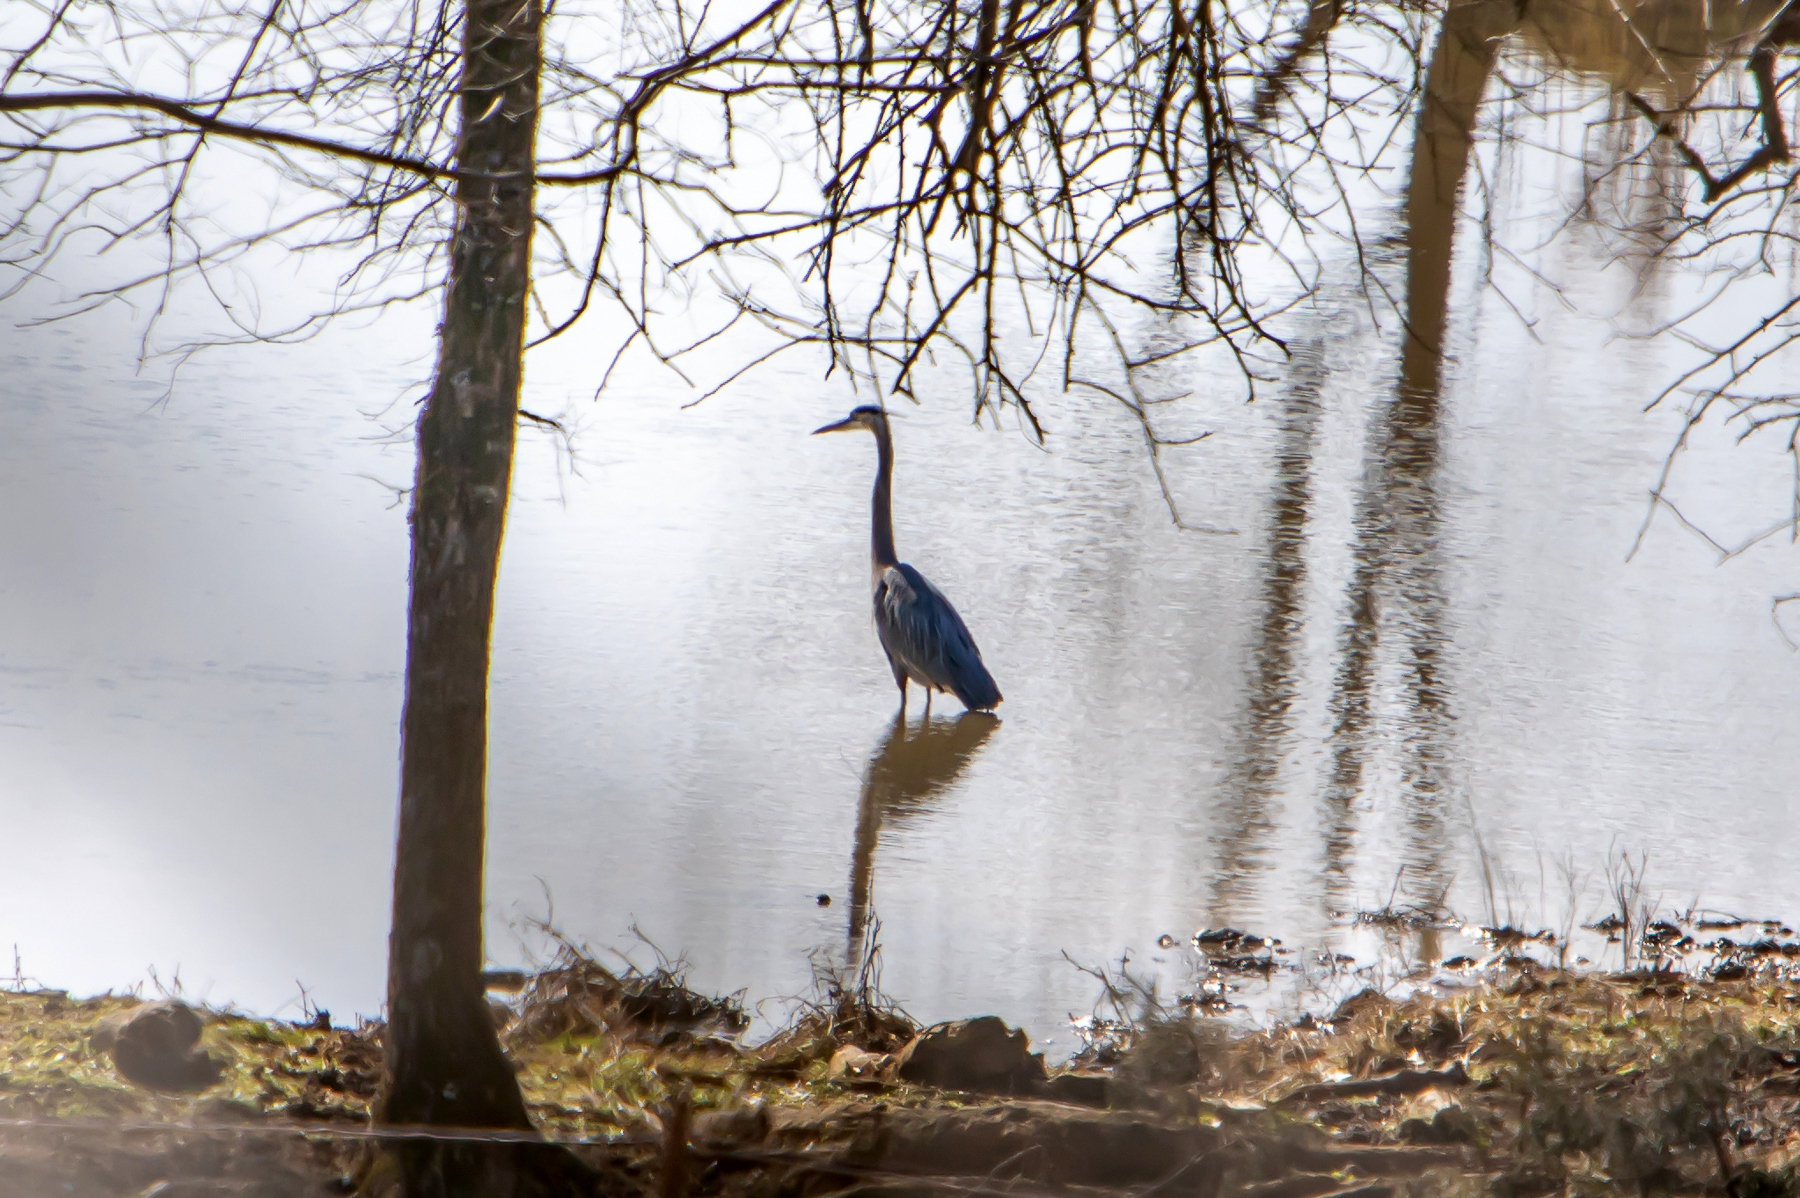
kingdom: Animalia
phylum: Chordata
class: Aves
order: Pelecaniformes
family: Ardeidae
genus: Ardea
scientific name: Ardea herodias
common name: Great blue heron
